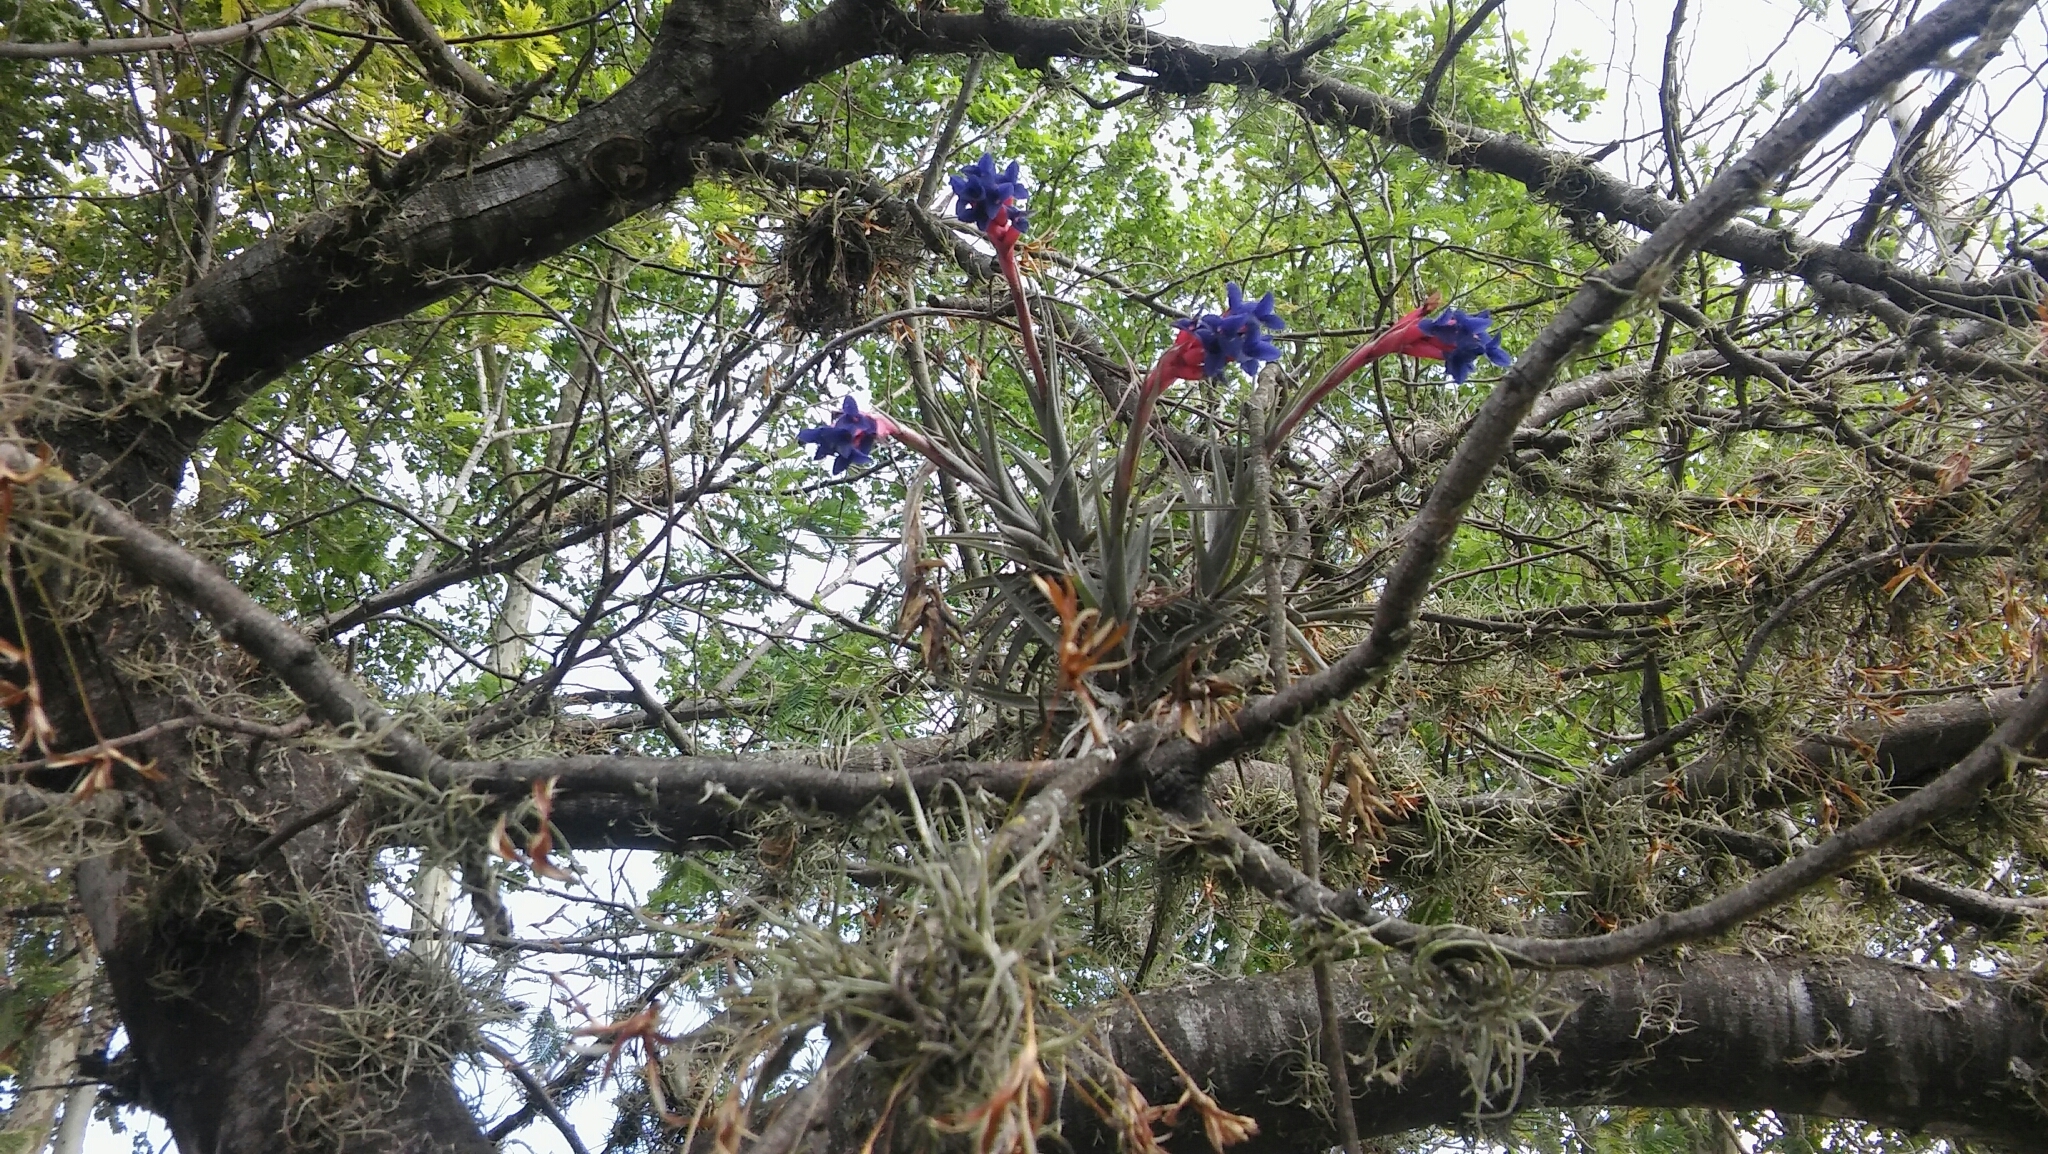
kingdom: Plantae
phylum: Tracheophyta
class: Liliopsida
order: Poales
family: Bromeliaceae
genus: Tillandsia
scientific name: Tillandsia aeranthos
